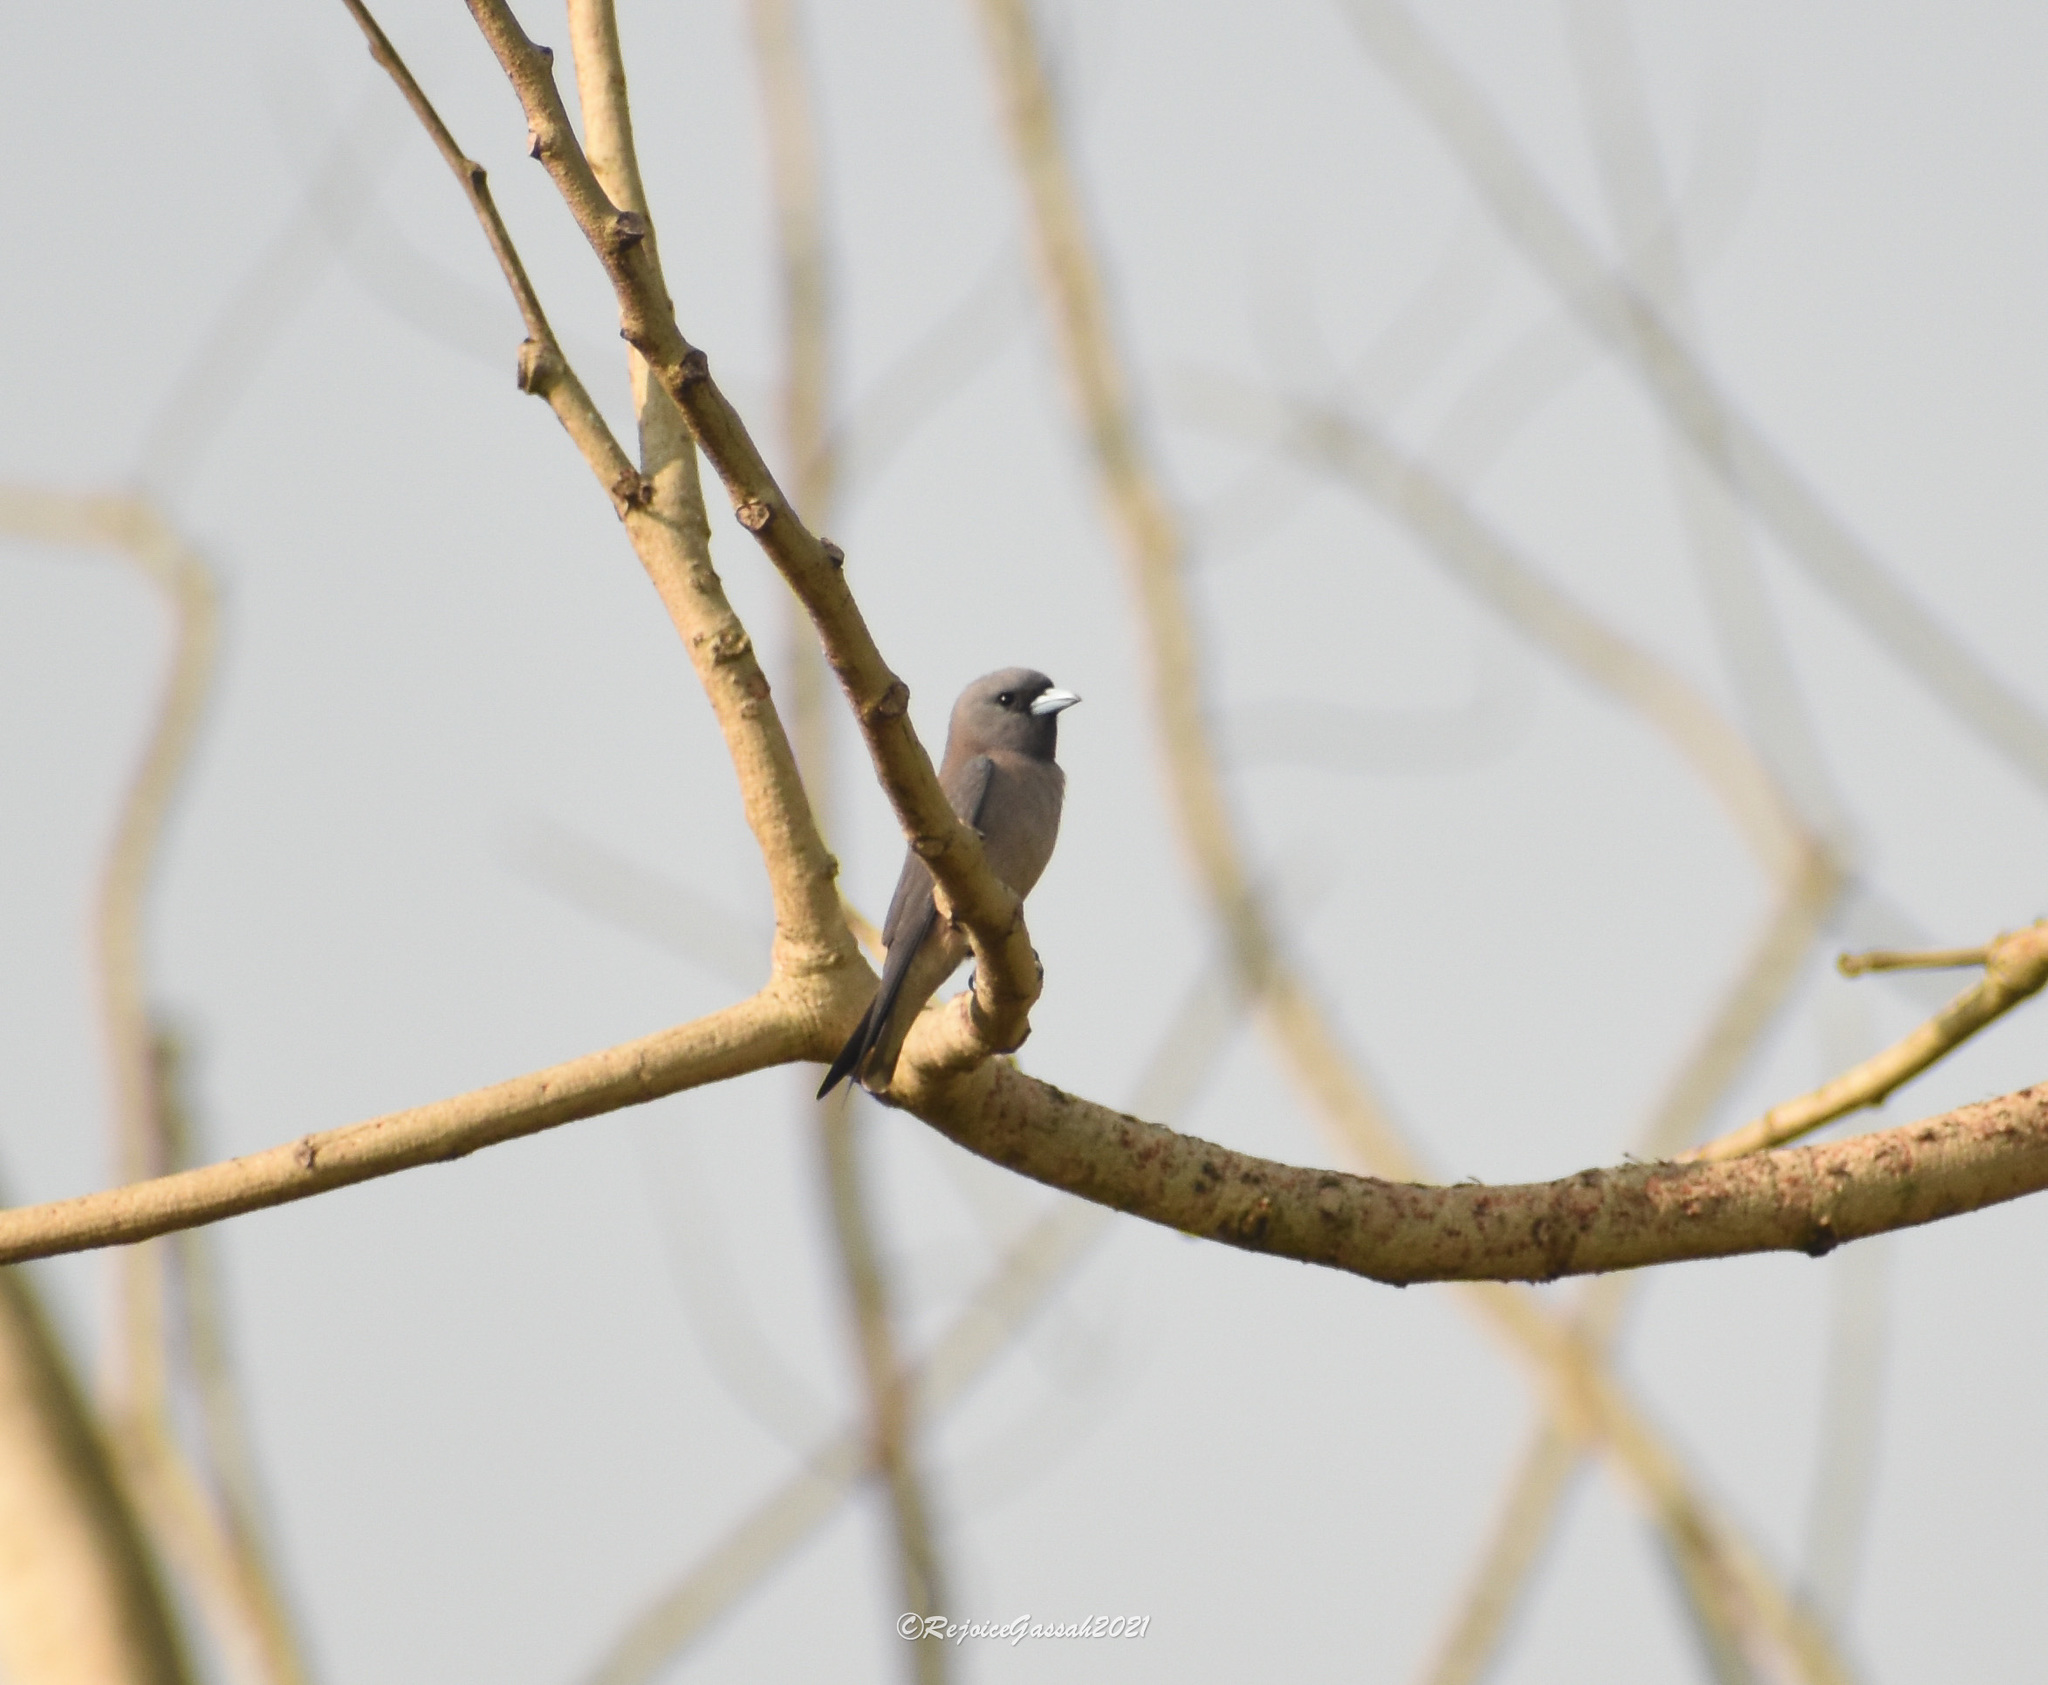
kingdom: Animalia
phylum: Chordata
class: Aves
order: Passeriformes
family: Artamidae
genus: Artamus
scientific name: Artamus fuscus
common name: Ashy woodswallow
